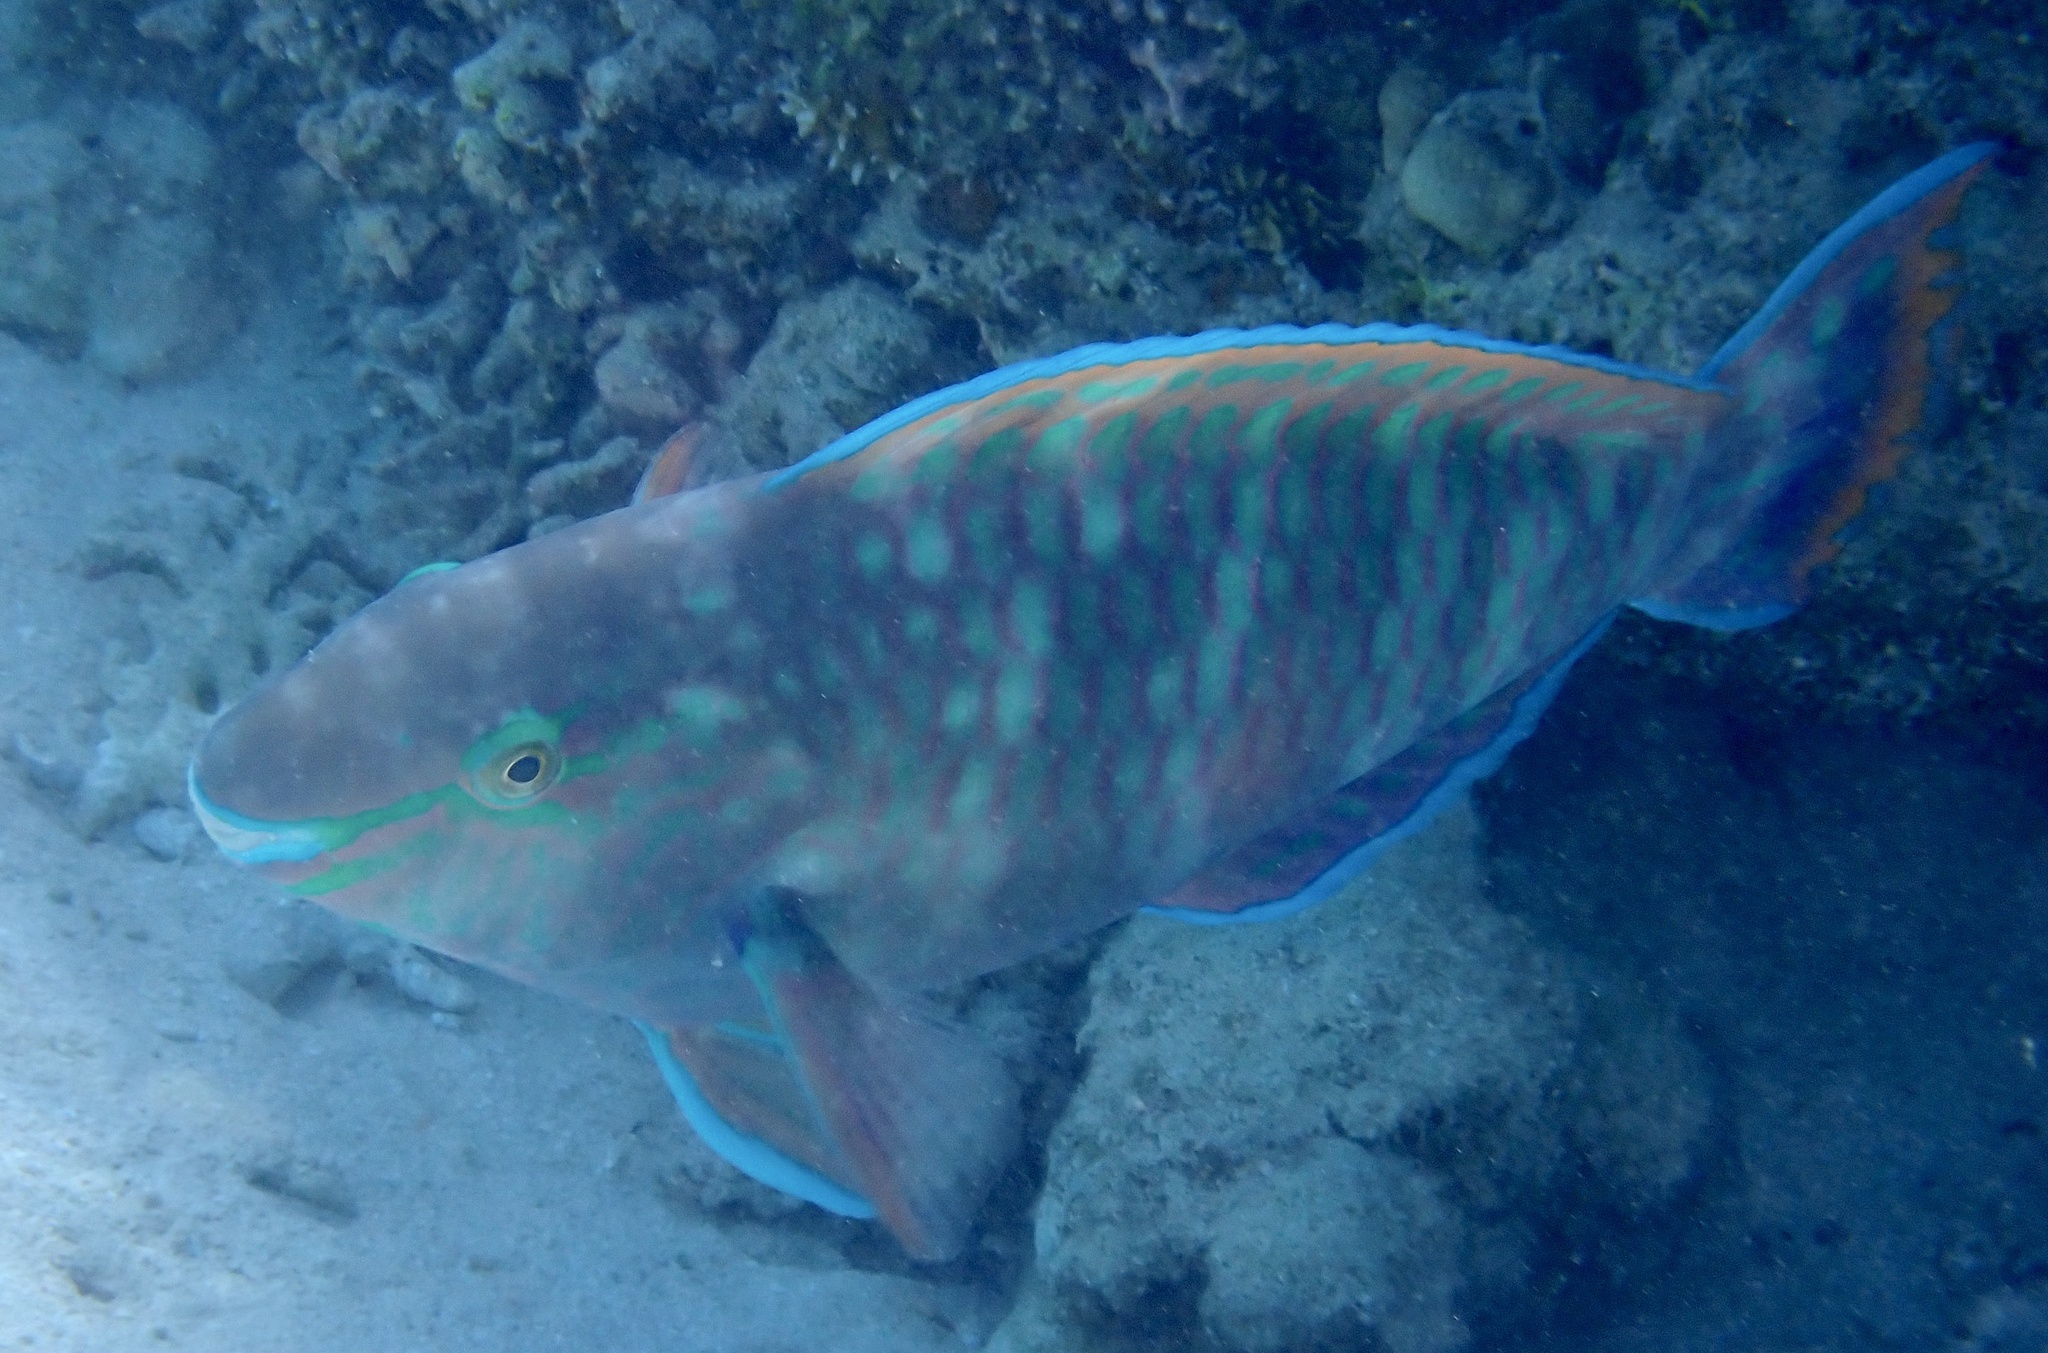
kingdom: Animalia
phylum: Chordata
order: Perciformes
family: Scaridae
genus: Scarus
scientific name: Scarus fuscopurpureus
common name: Purple-brown parrotfish
